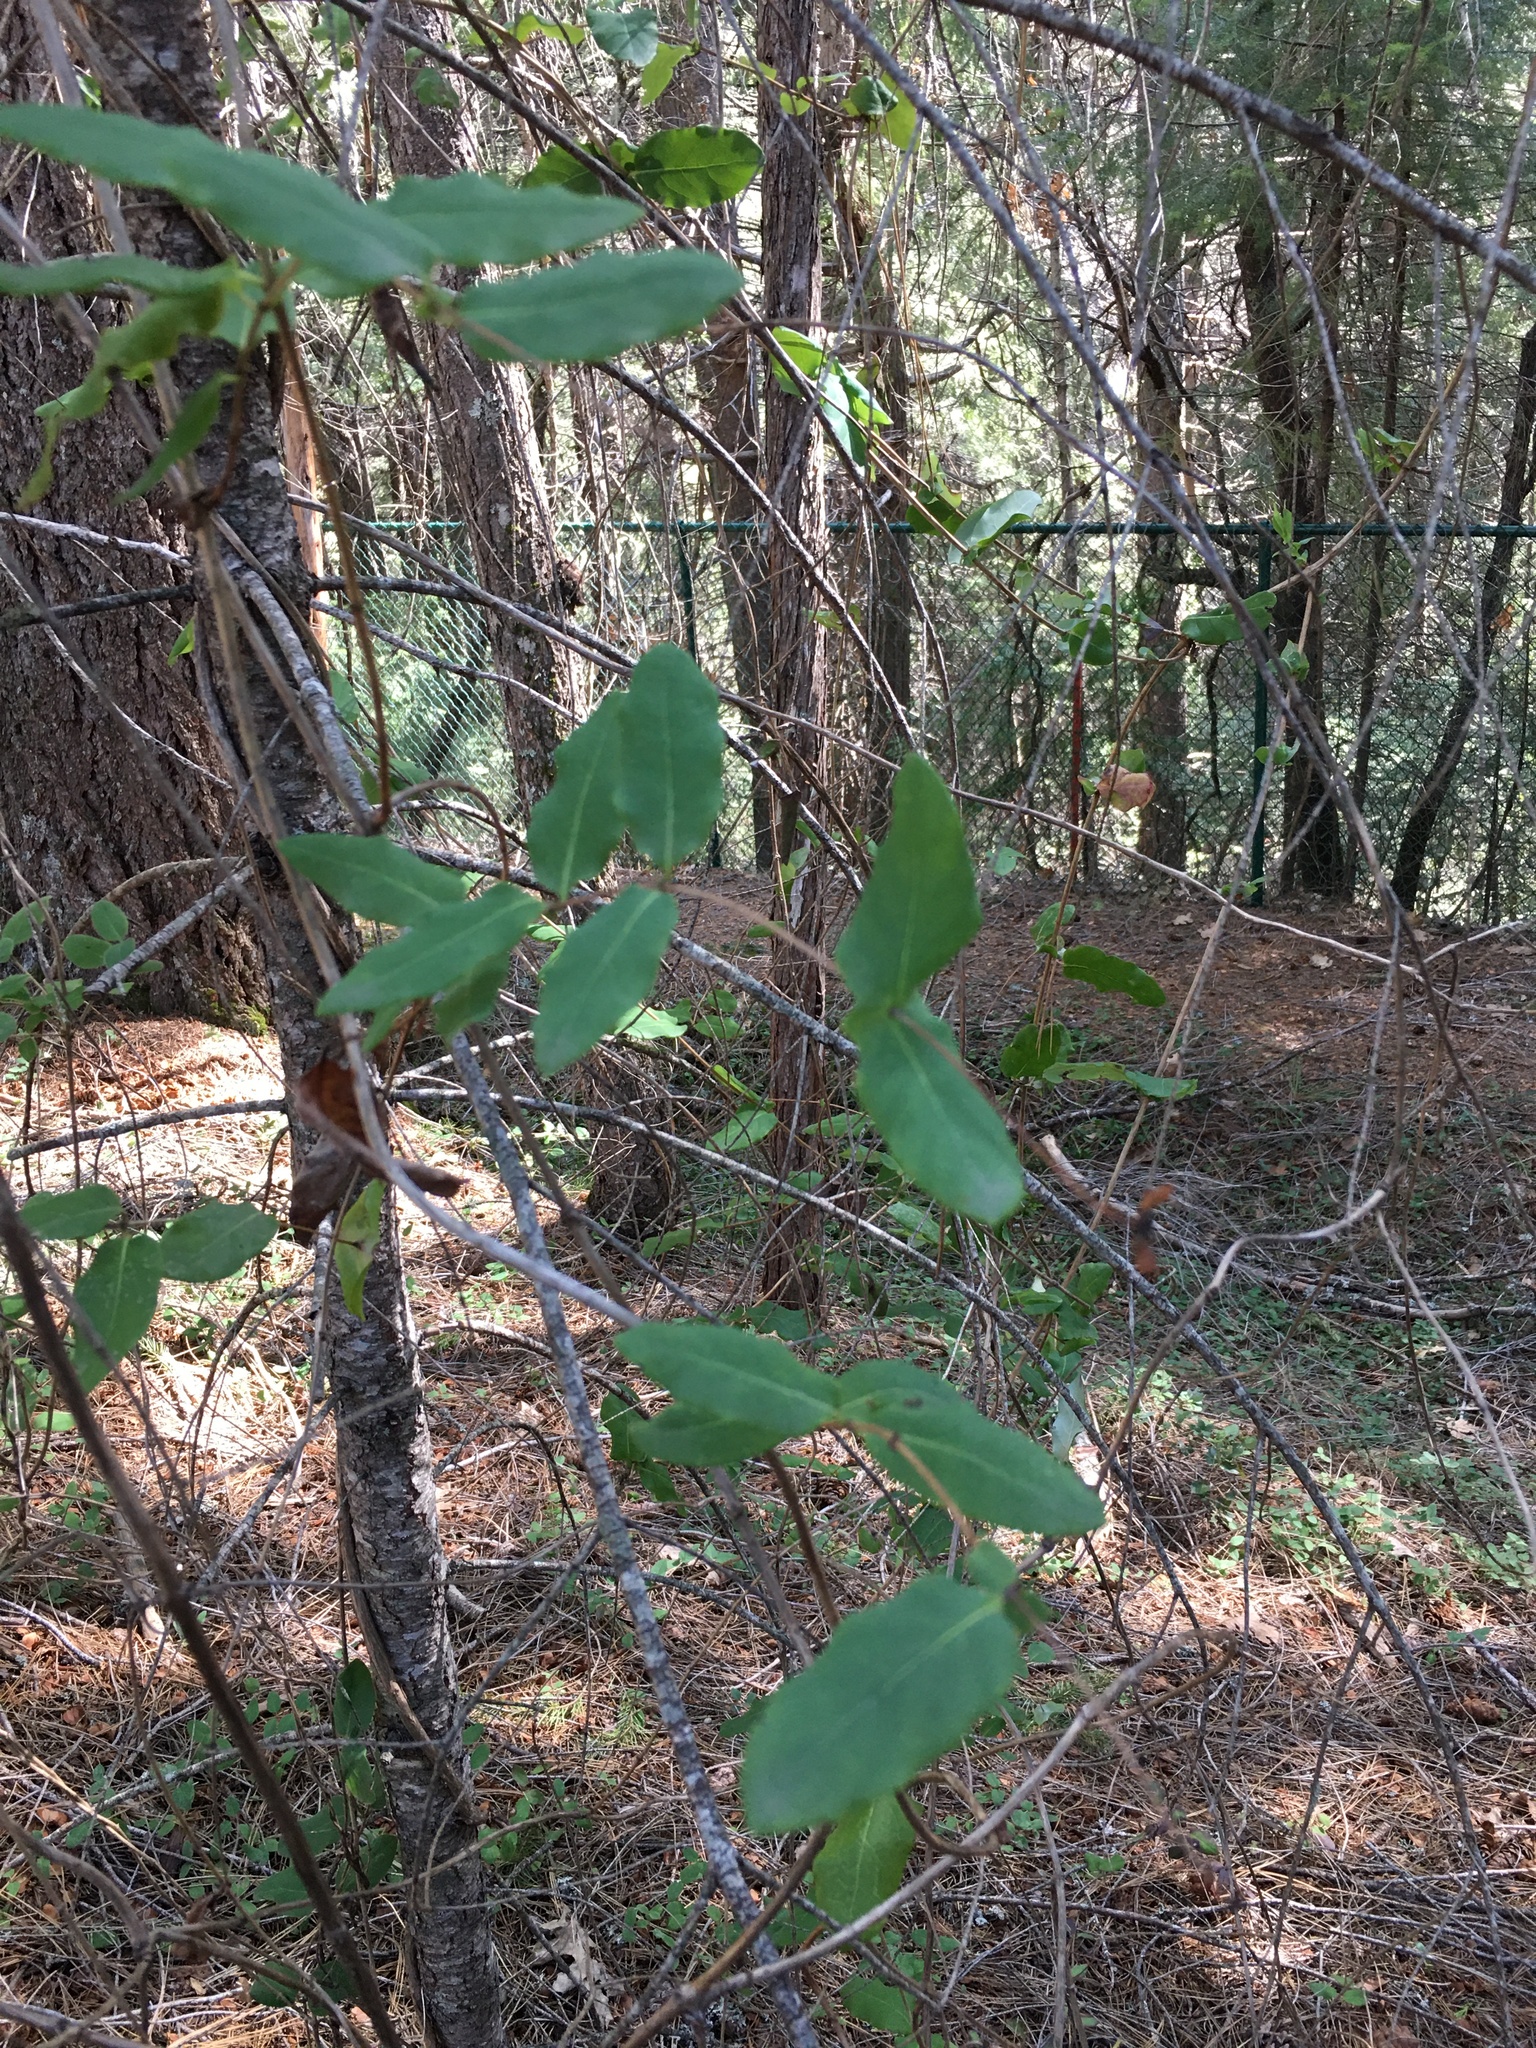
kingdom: Plantae
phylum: Tracheophyta
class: Magnoliopsida
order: Dipsacales
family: Caprifoliaceae
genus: Lonicera
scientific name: Lonicera hispidula
